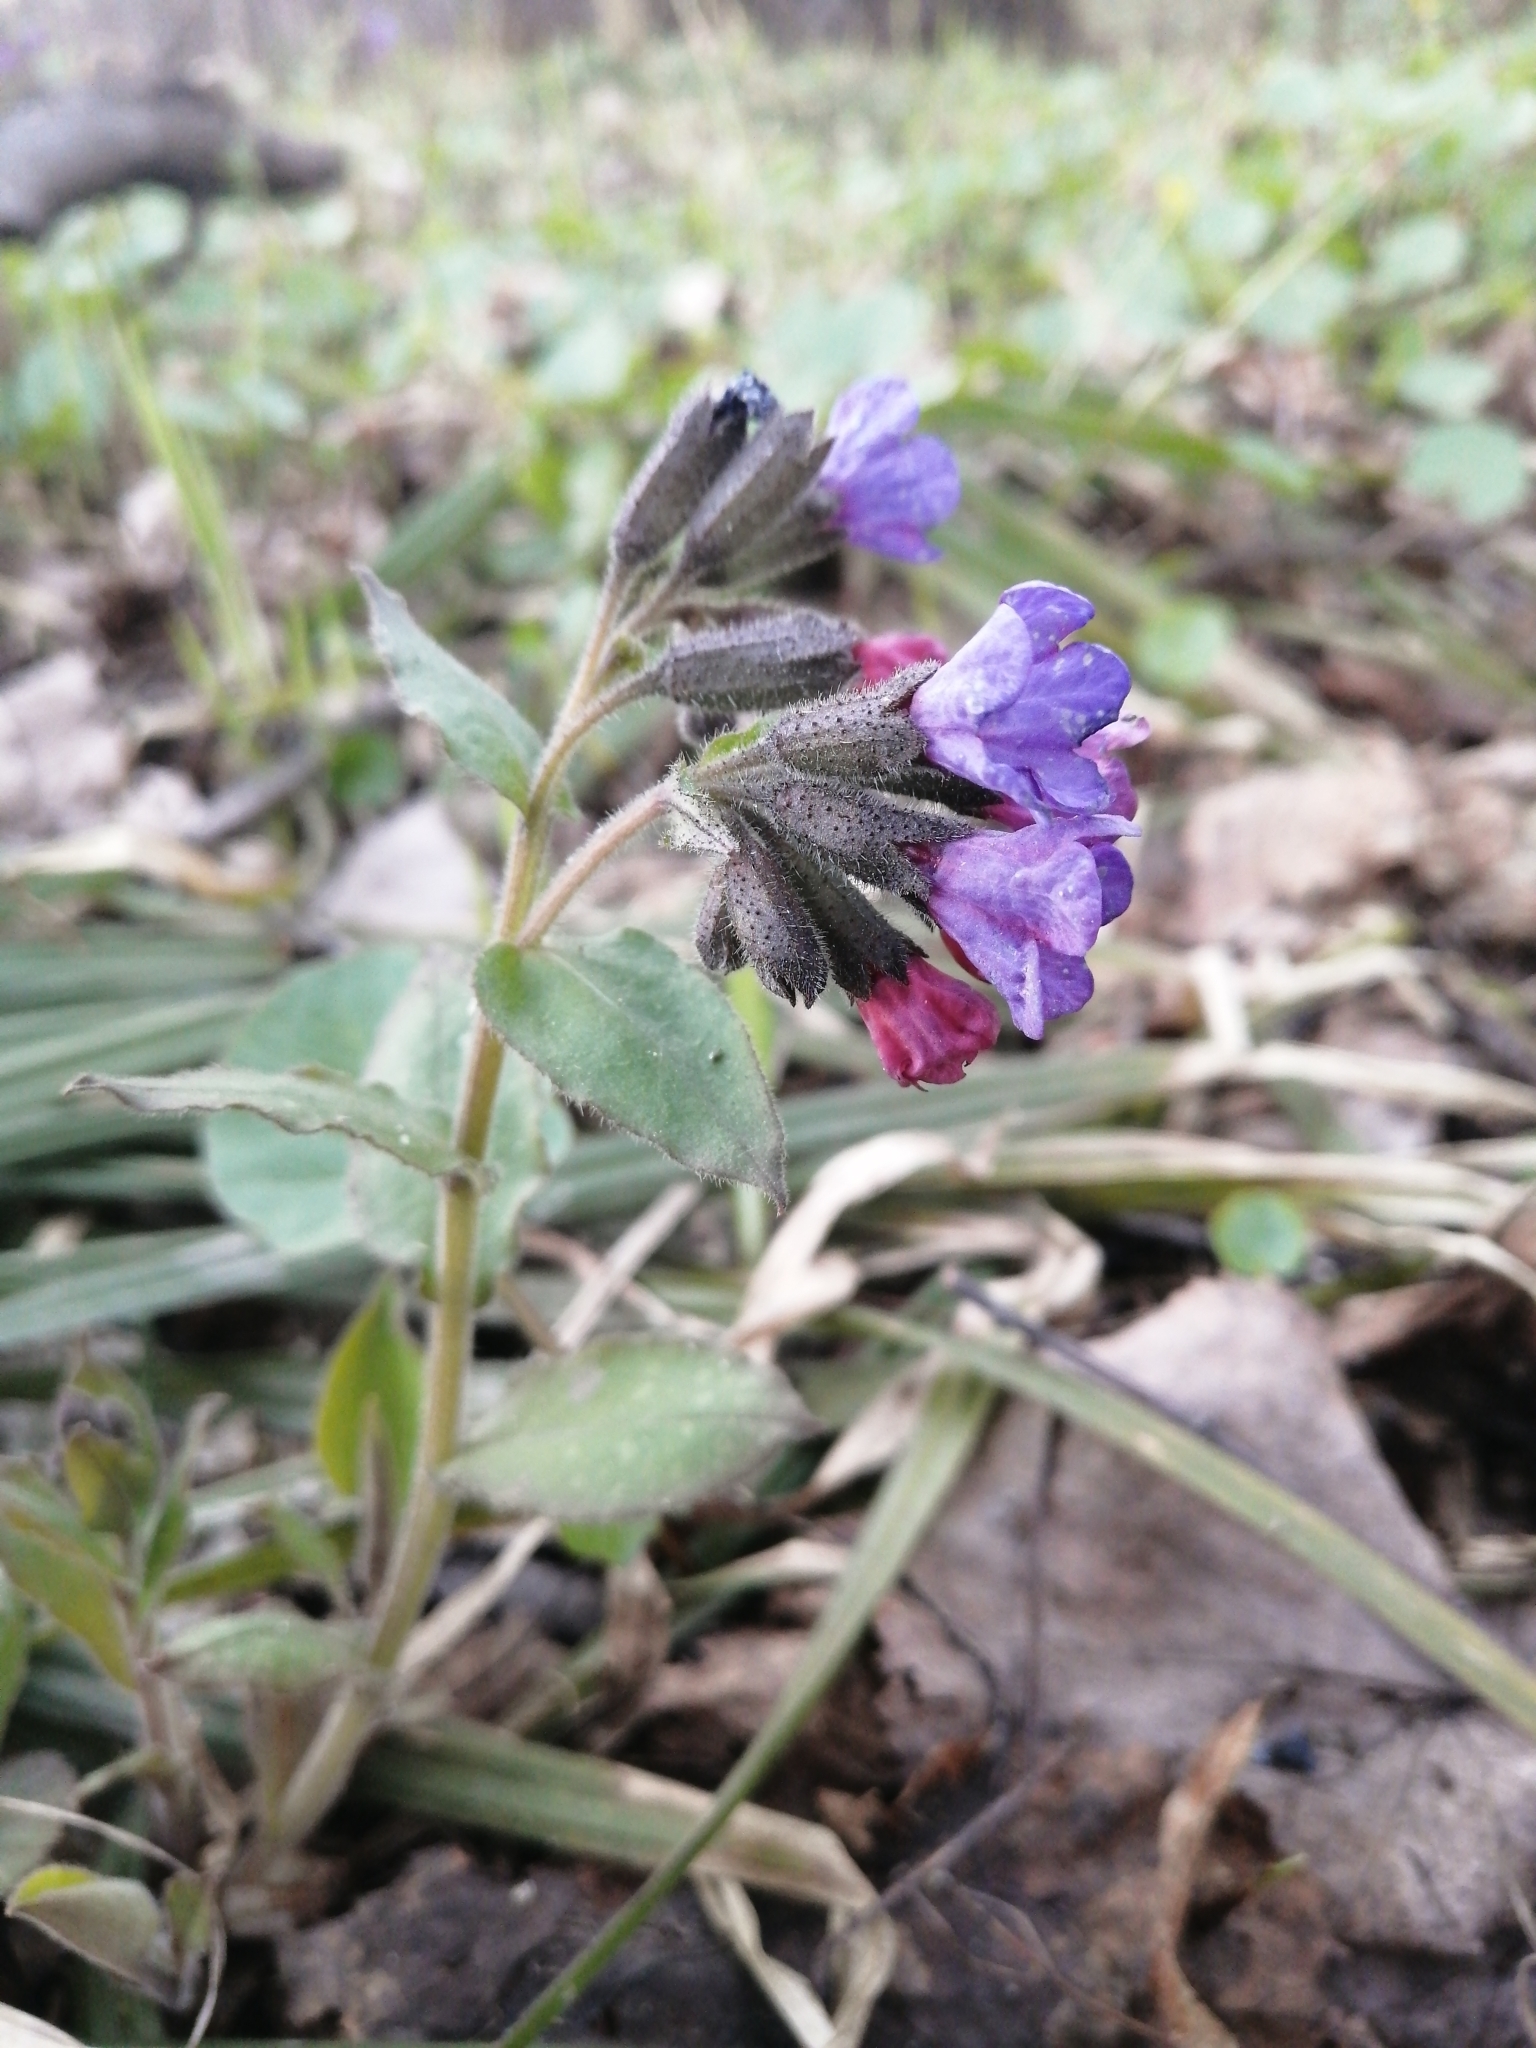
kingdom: Plantae
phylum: Tracheophyta
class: Magnoliopsida
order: Boraginales
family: Boraginaceae
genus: Pulmonaria
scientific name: Pulmonaria obscura
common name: Suffolk lungwort
